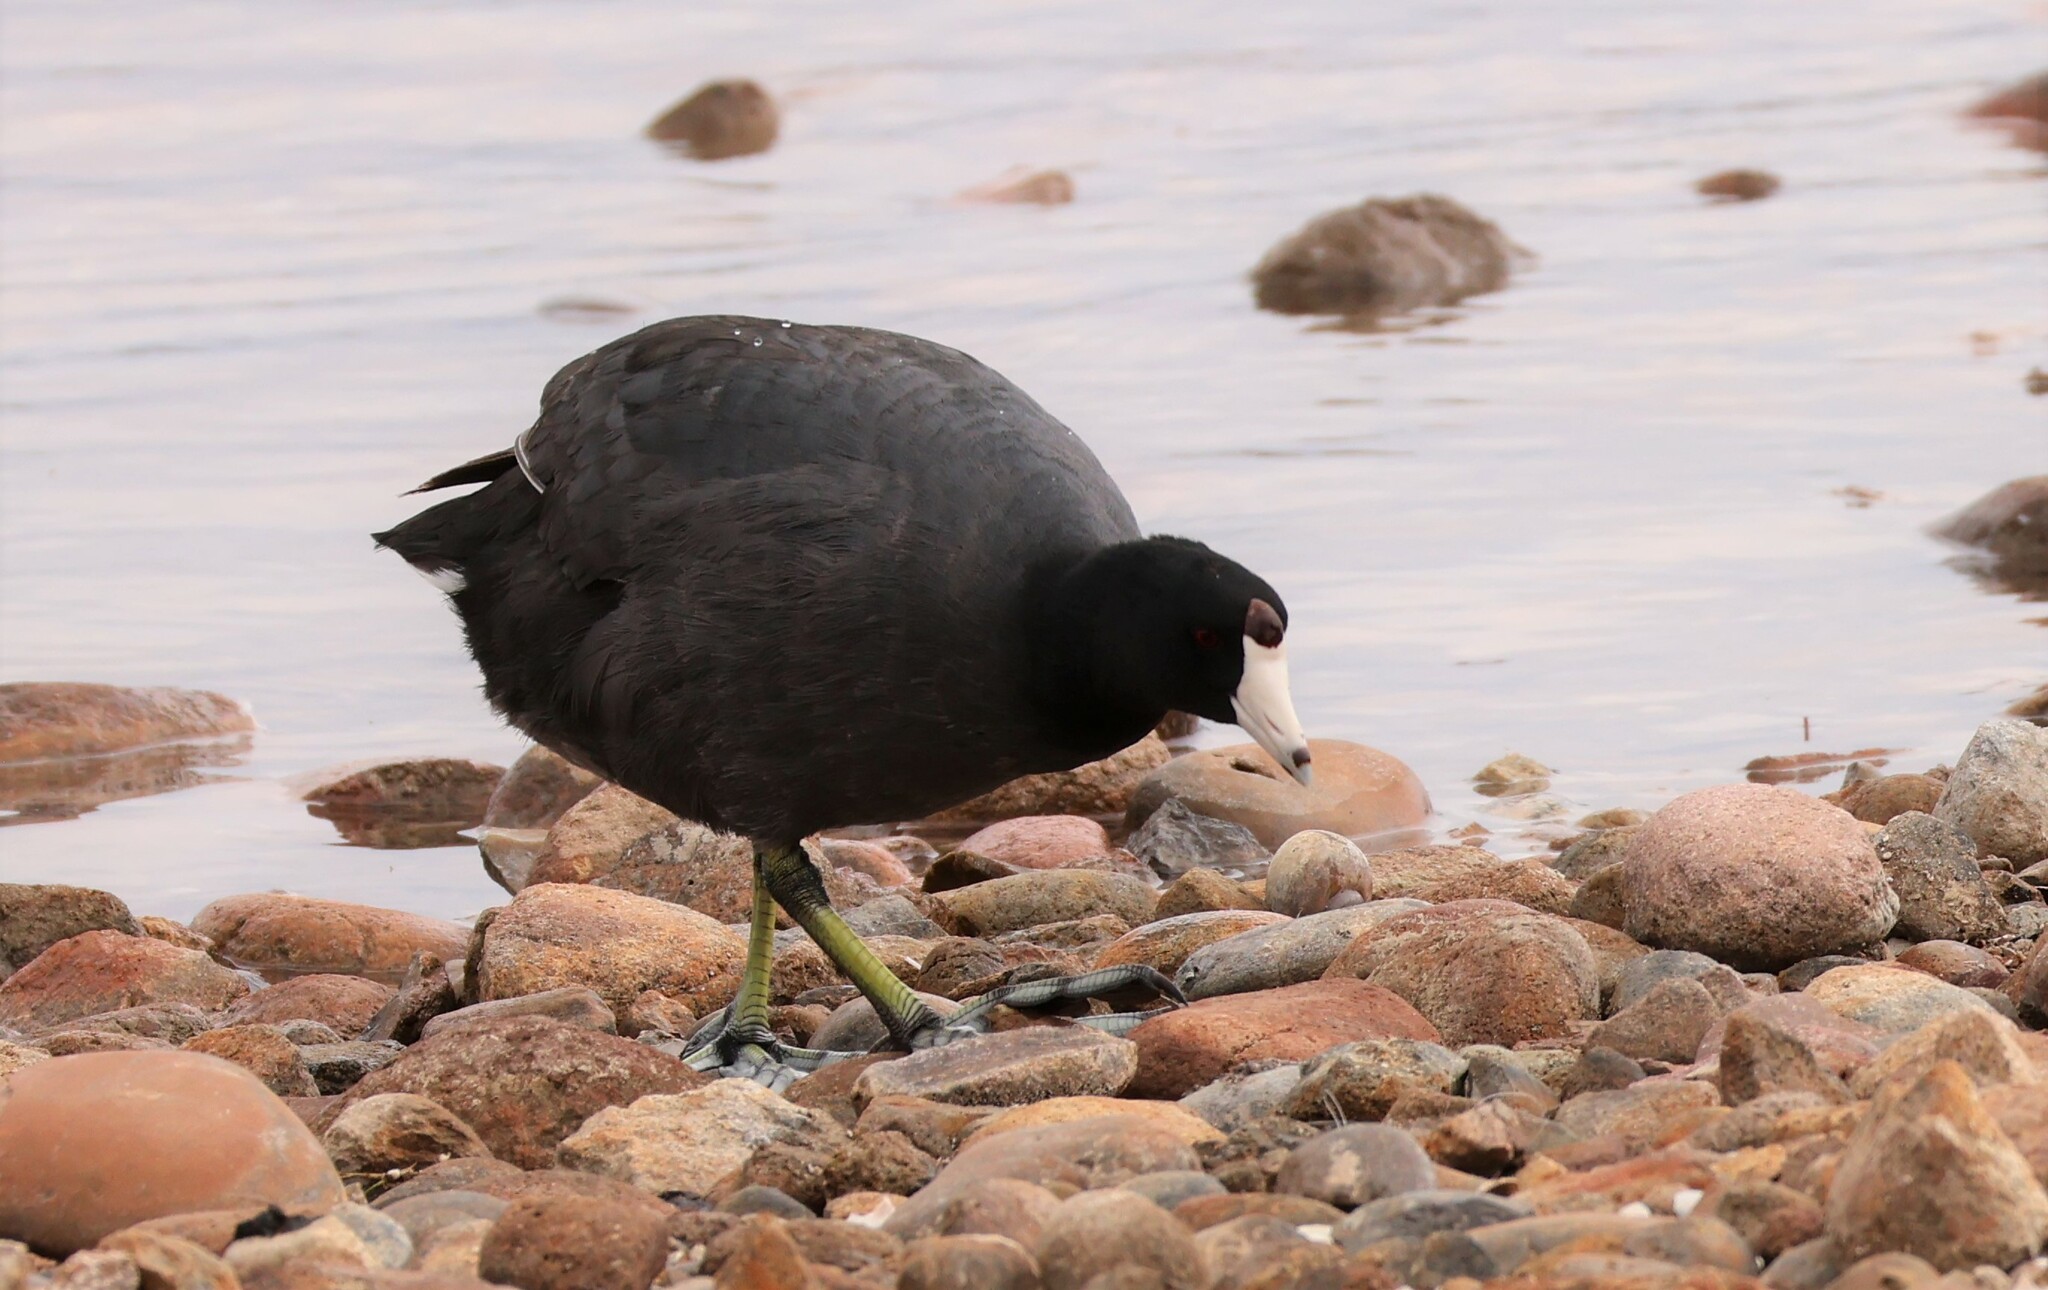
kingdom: Animalia
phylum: Chordata
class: Aves
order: Gruiformes
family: Rallidae
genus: Fulica
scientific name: Fulica americana
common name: American coot
